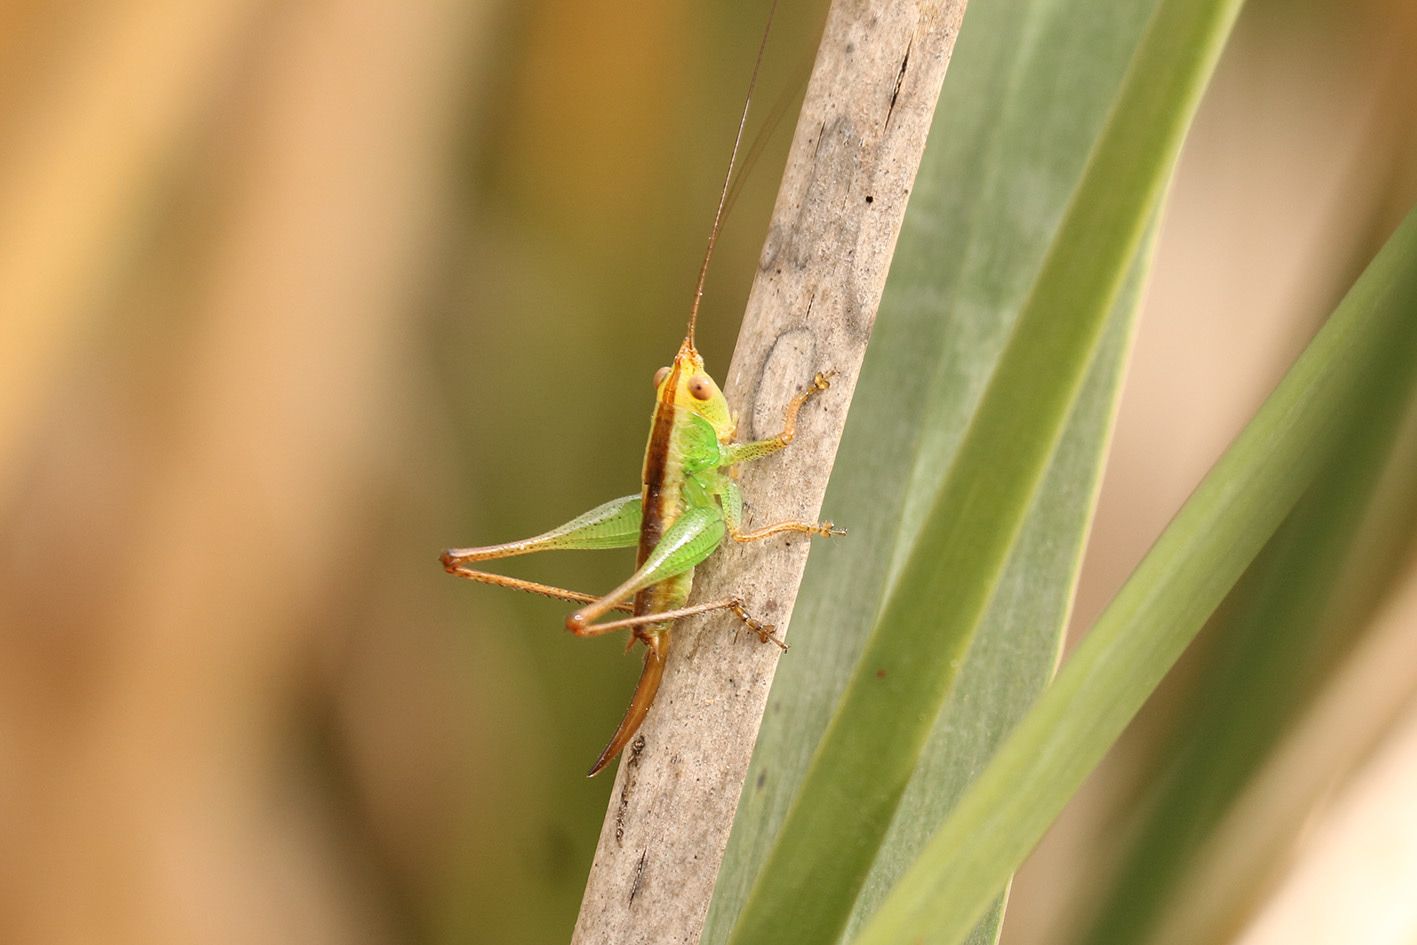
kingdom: Animalia
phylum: Arthropoda
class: Insecta
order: Orthoptera
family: Tettigoniidae
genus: Conocephalus
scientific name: Conocephalus cinnamonifrons
